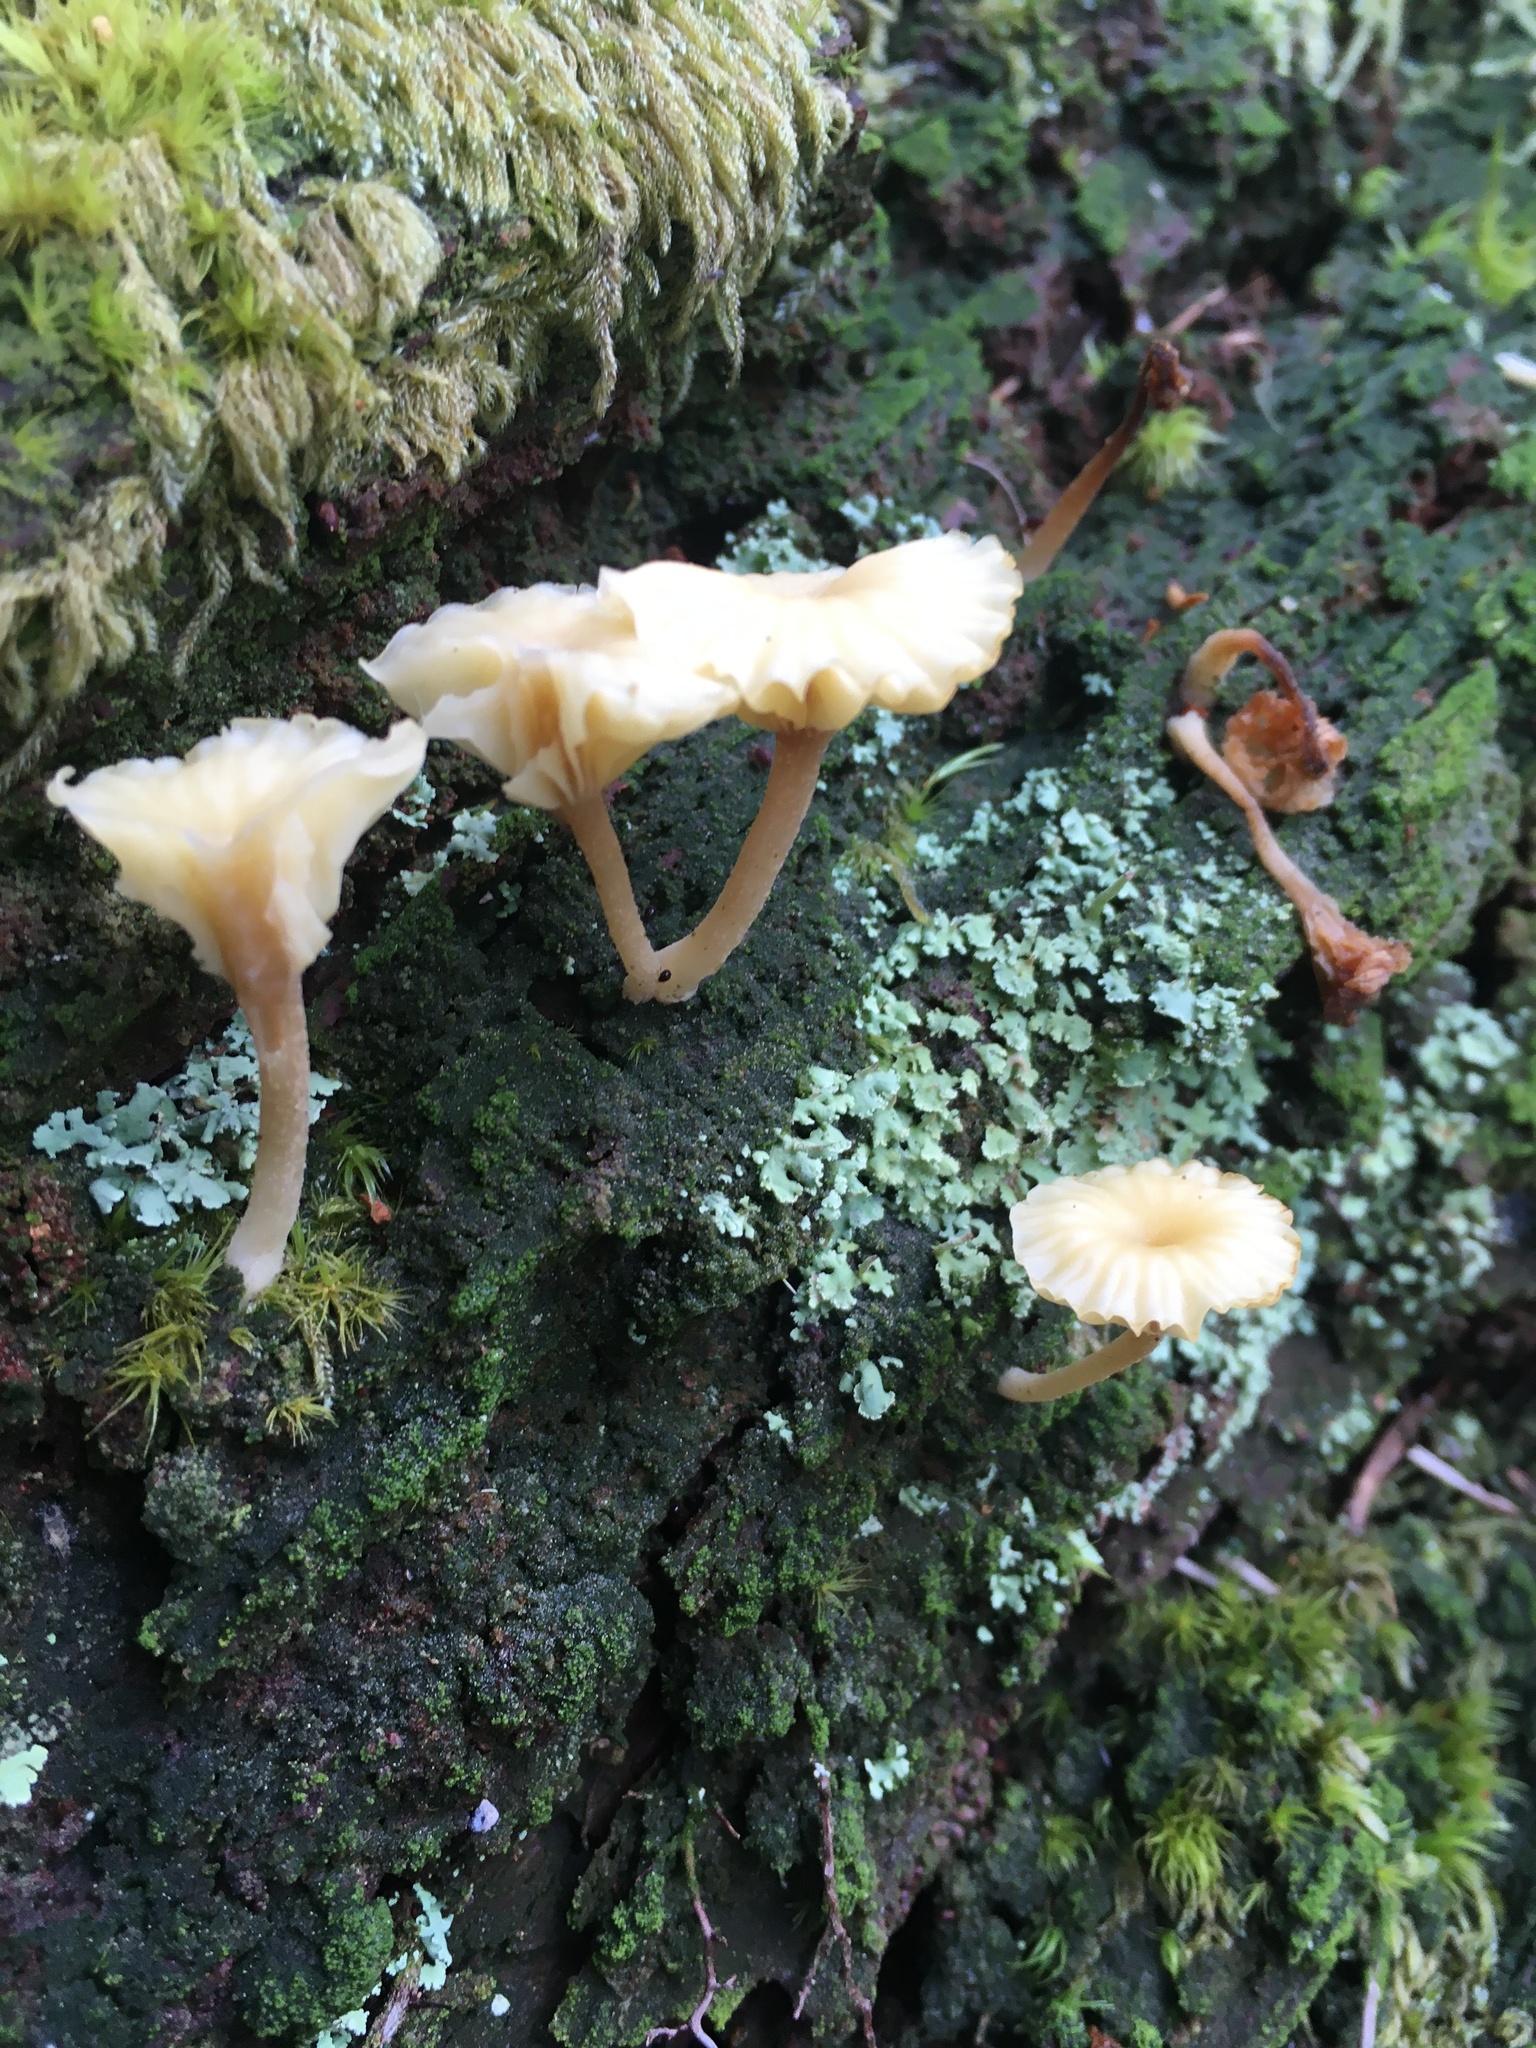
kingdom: Fungi
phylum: Basidiomycota
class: Agaricomycetes
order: Agaricales
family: Hygrophoraceae
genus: Lichenomphalia
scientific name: Lichenomphalia
